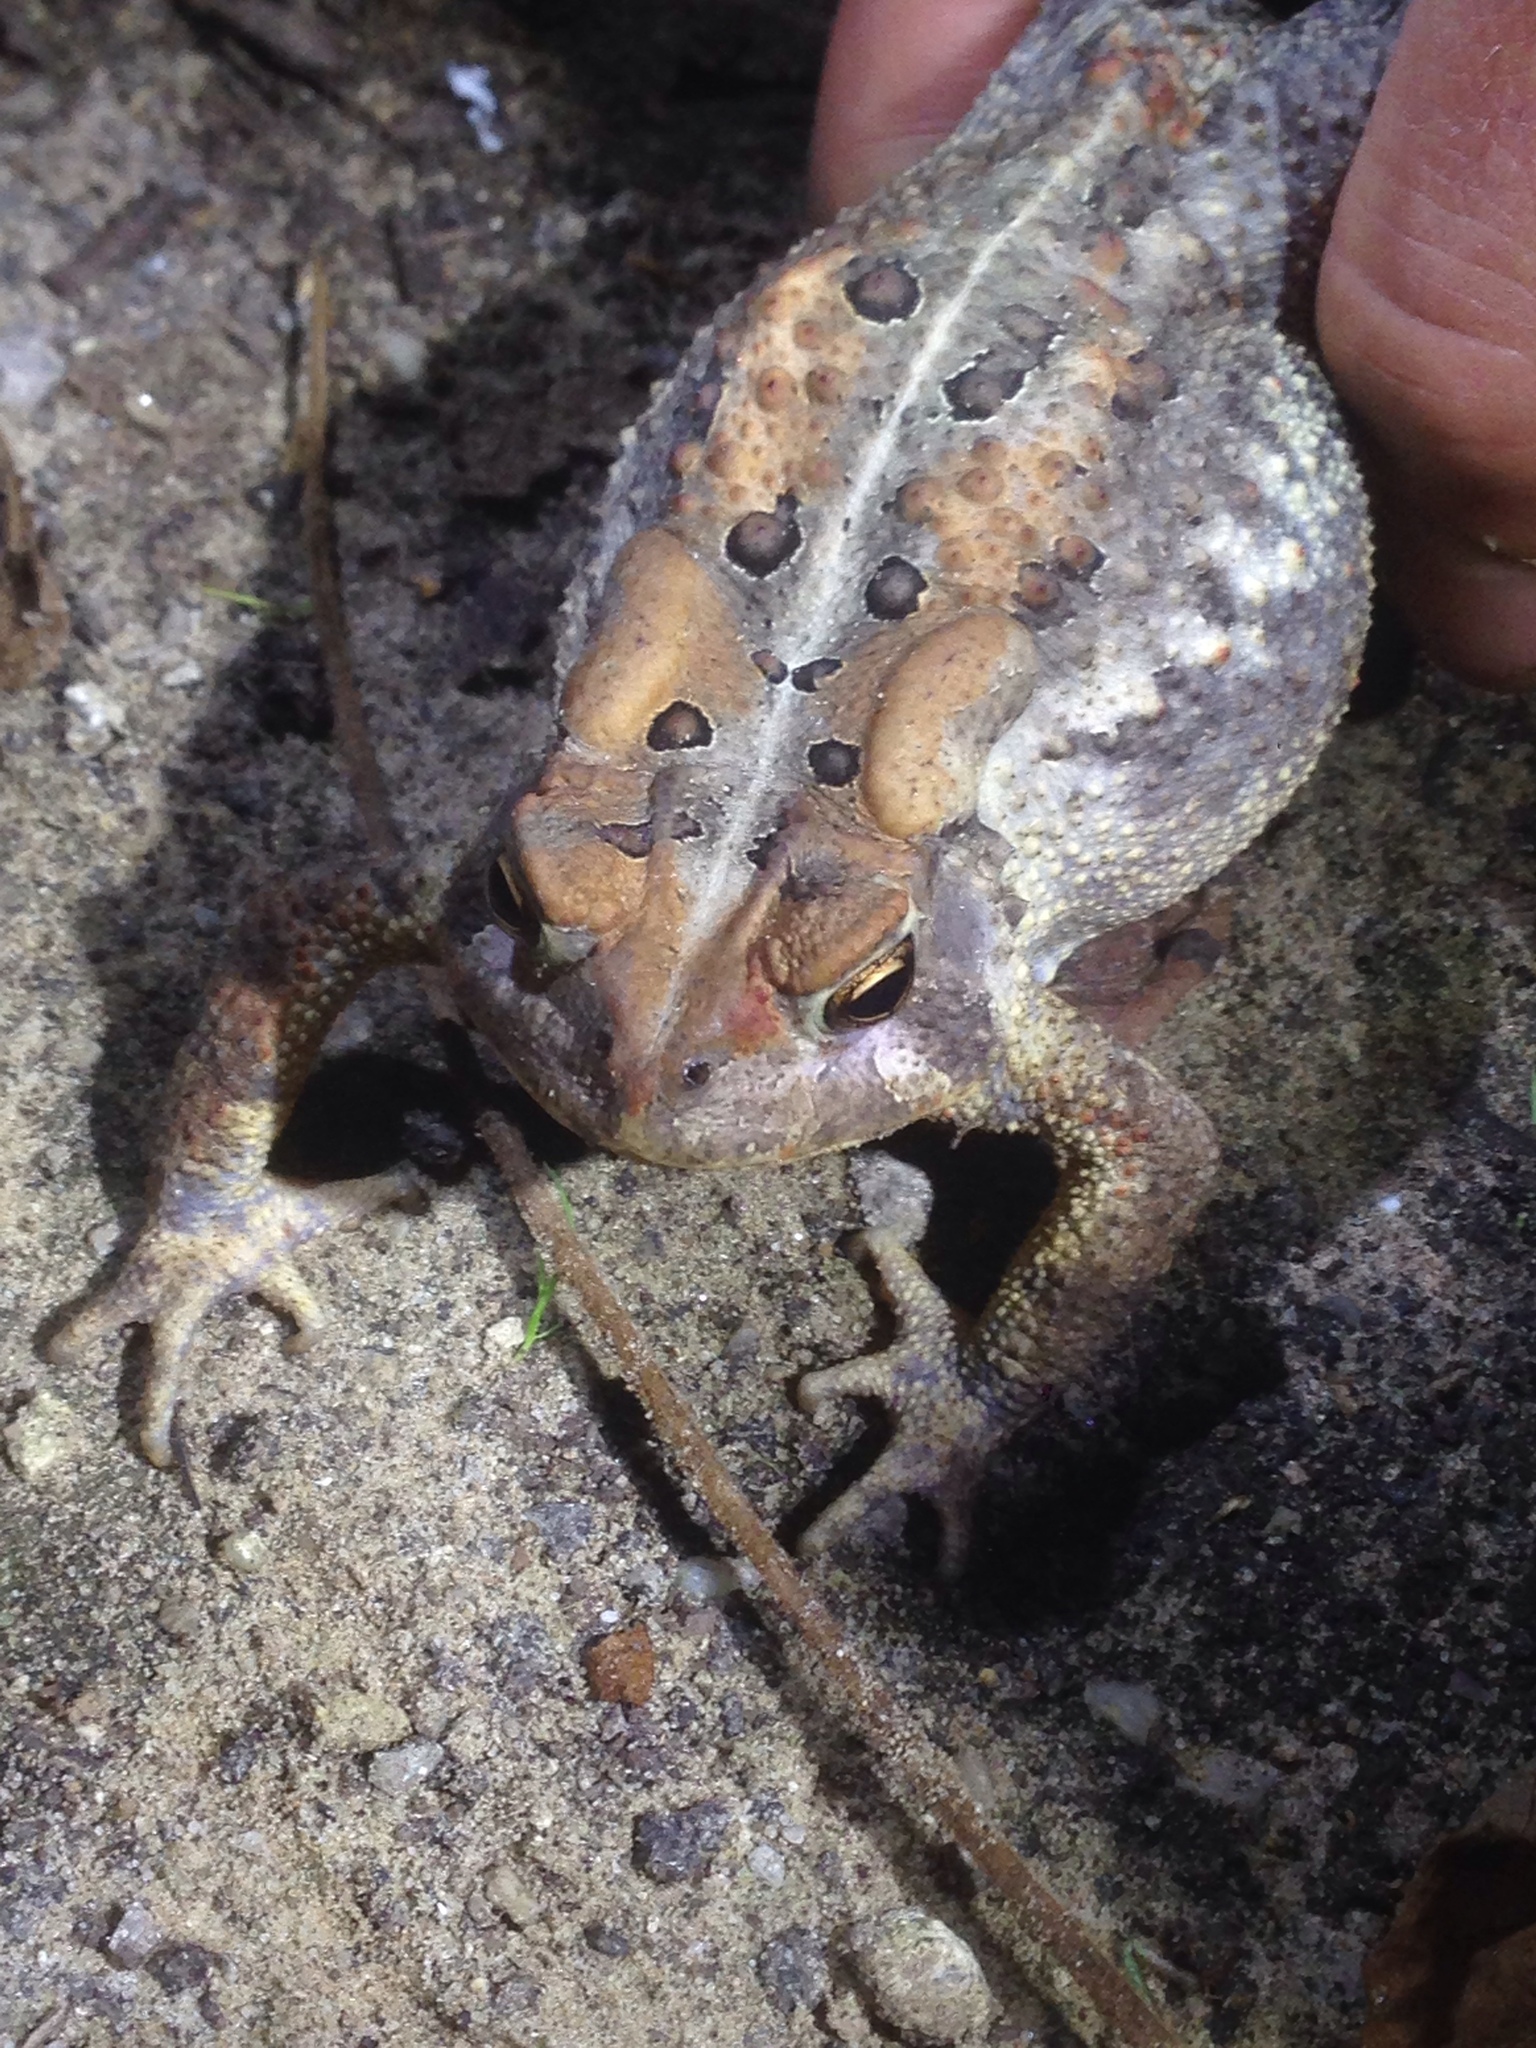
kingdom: Animalia
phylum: Chordata
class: Amphibia
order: Anura
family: Bufonidae
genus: Anaxyrus
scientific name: Anaxyrus americanus
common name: American toad
